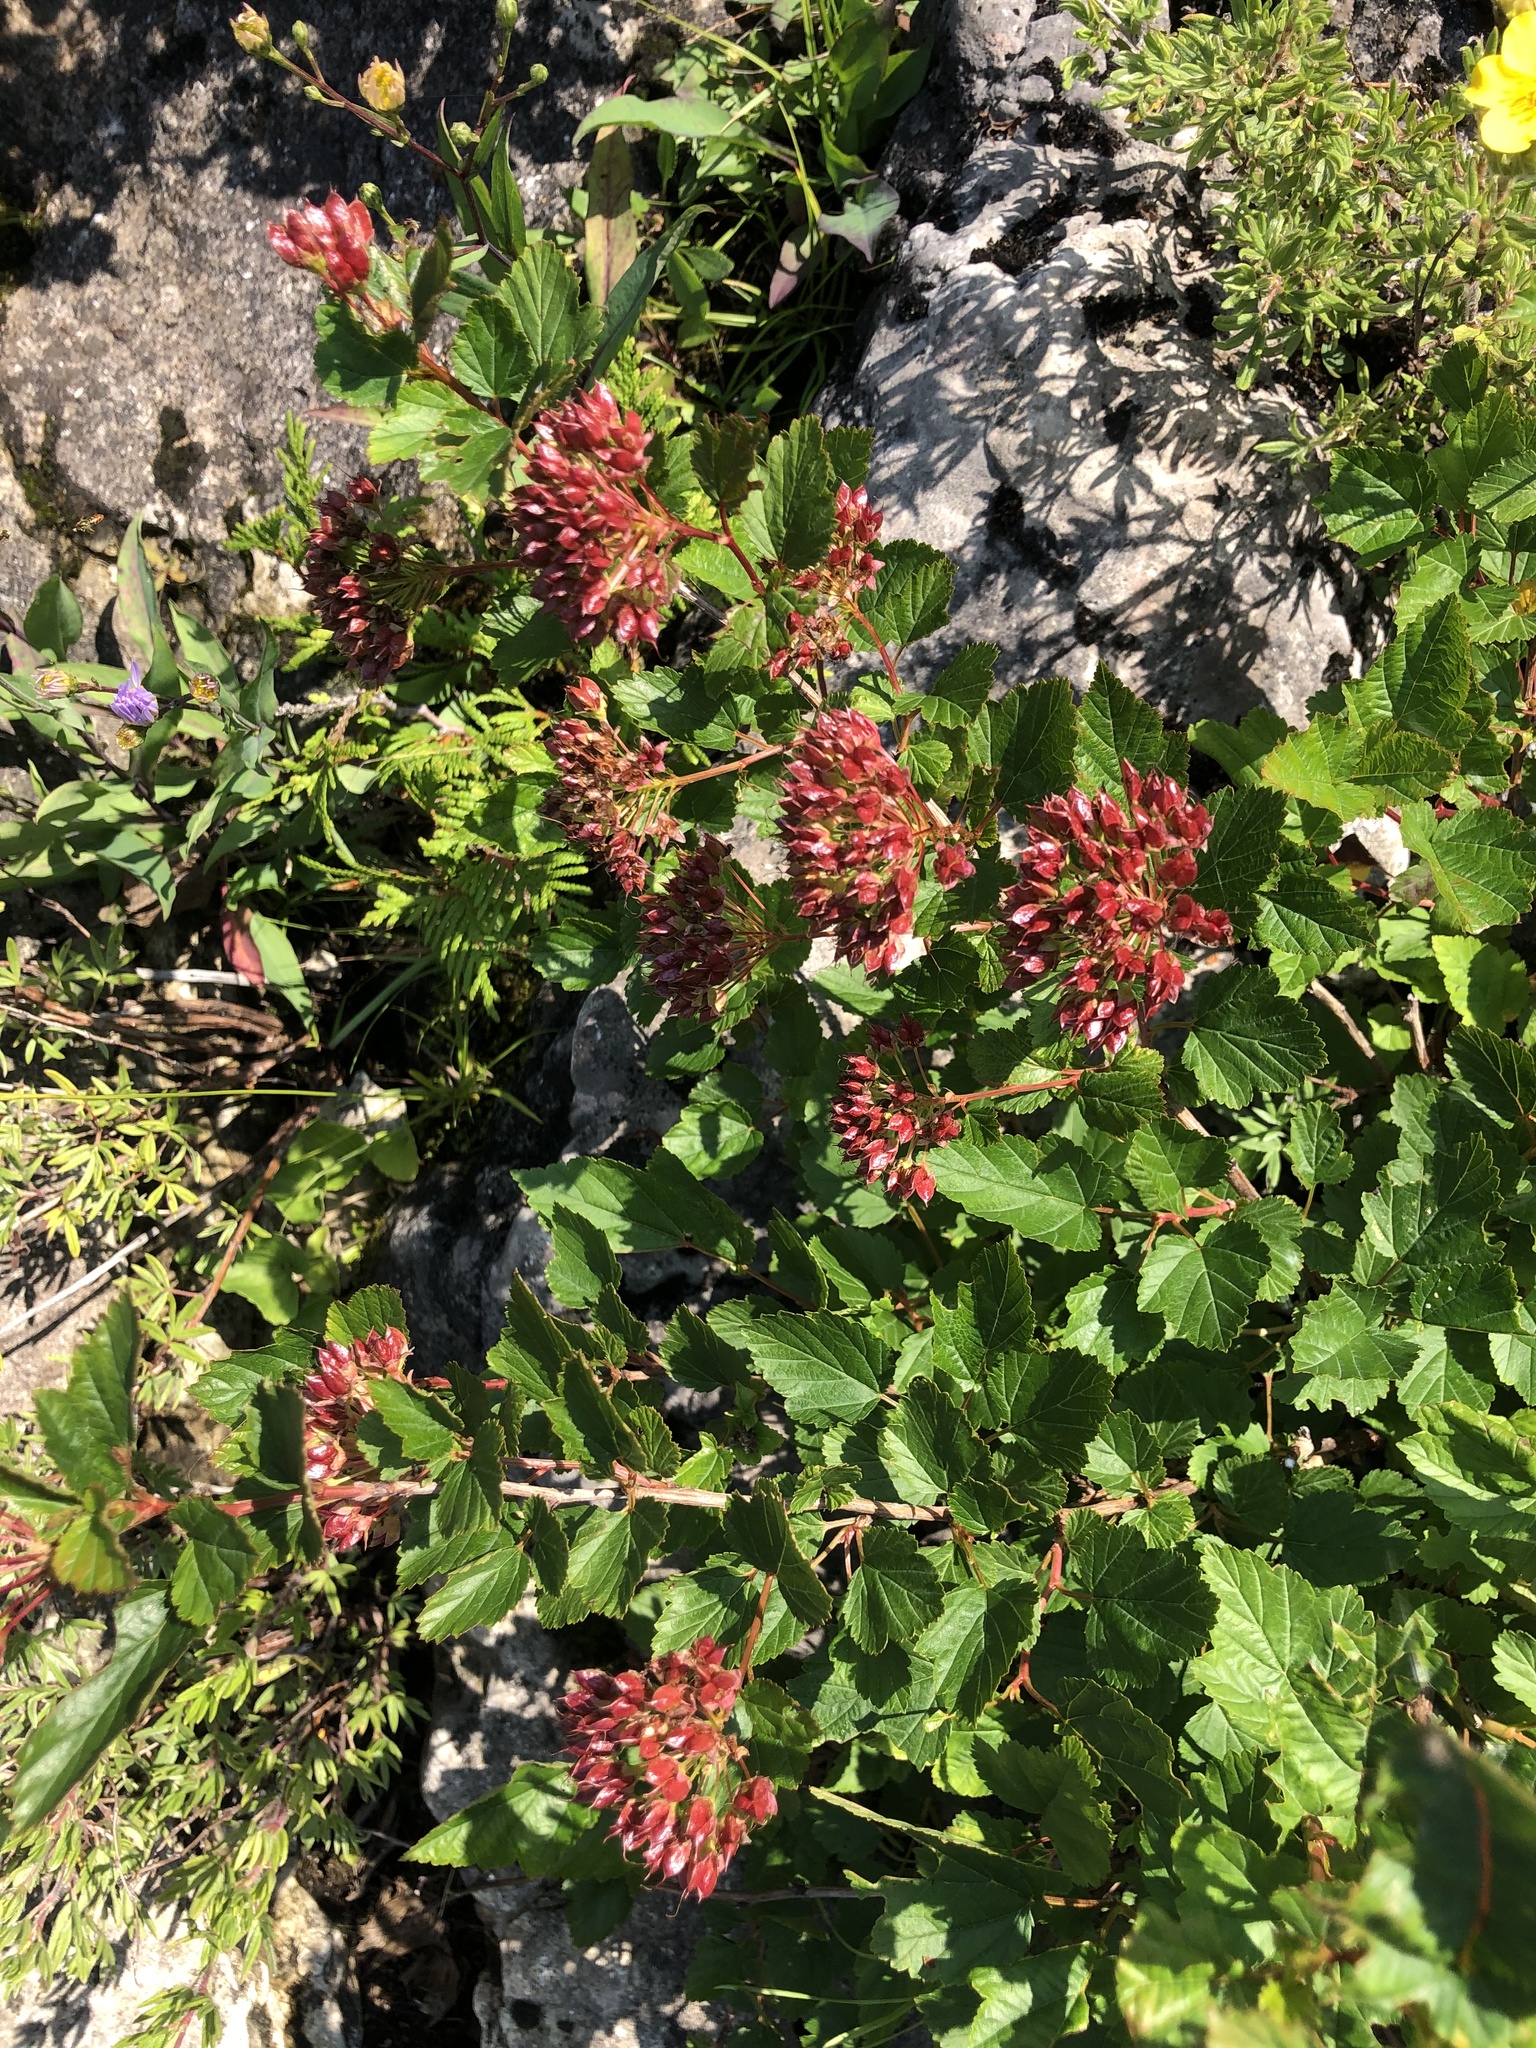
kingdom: Plantae
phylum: Tracheophyta
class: Magnoliopsida
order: Rosales
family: Rosaceae
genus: Physocarpus
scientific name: Physocarpus opulifolius
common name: Ninebark
